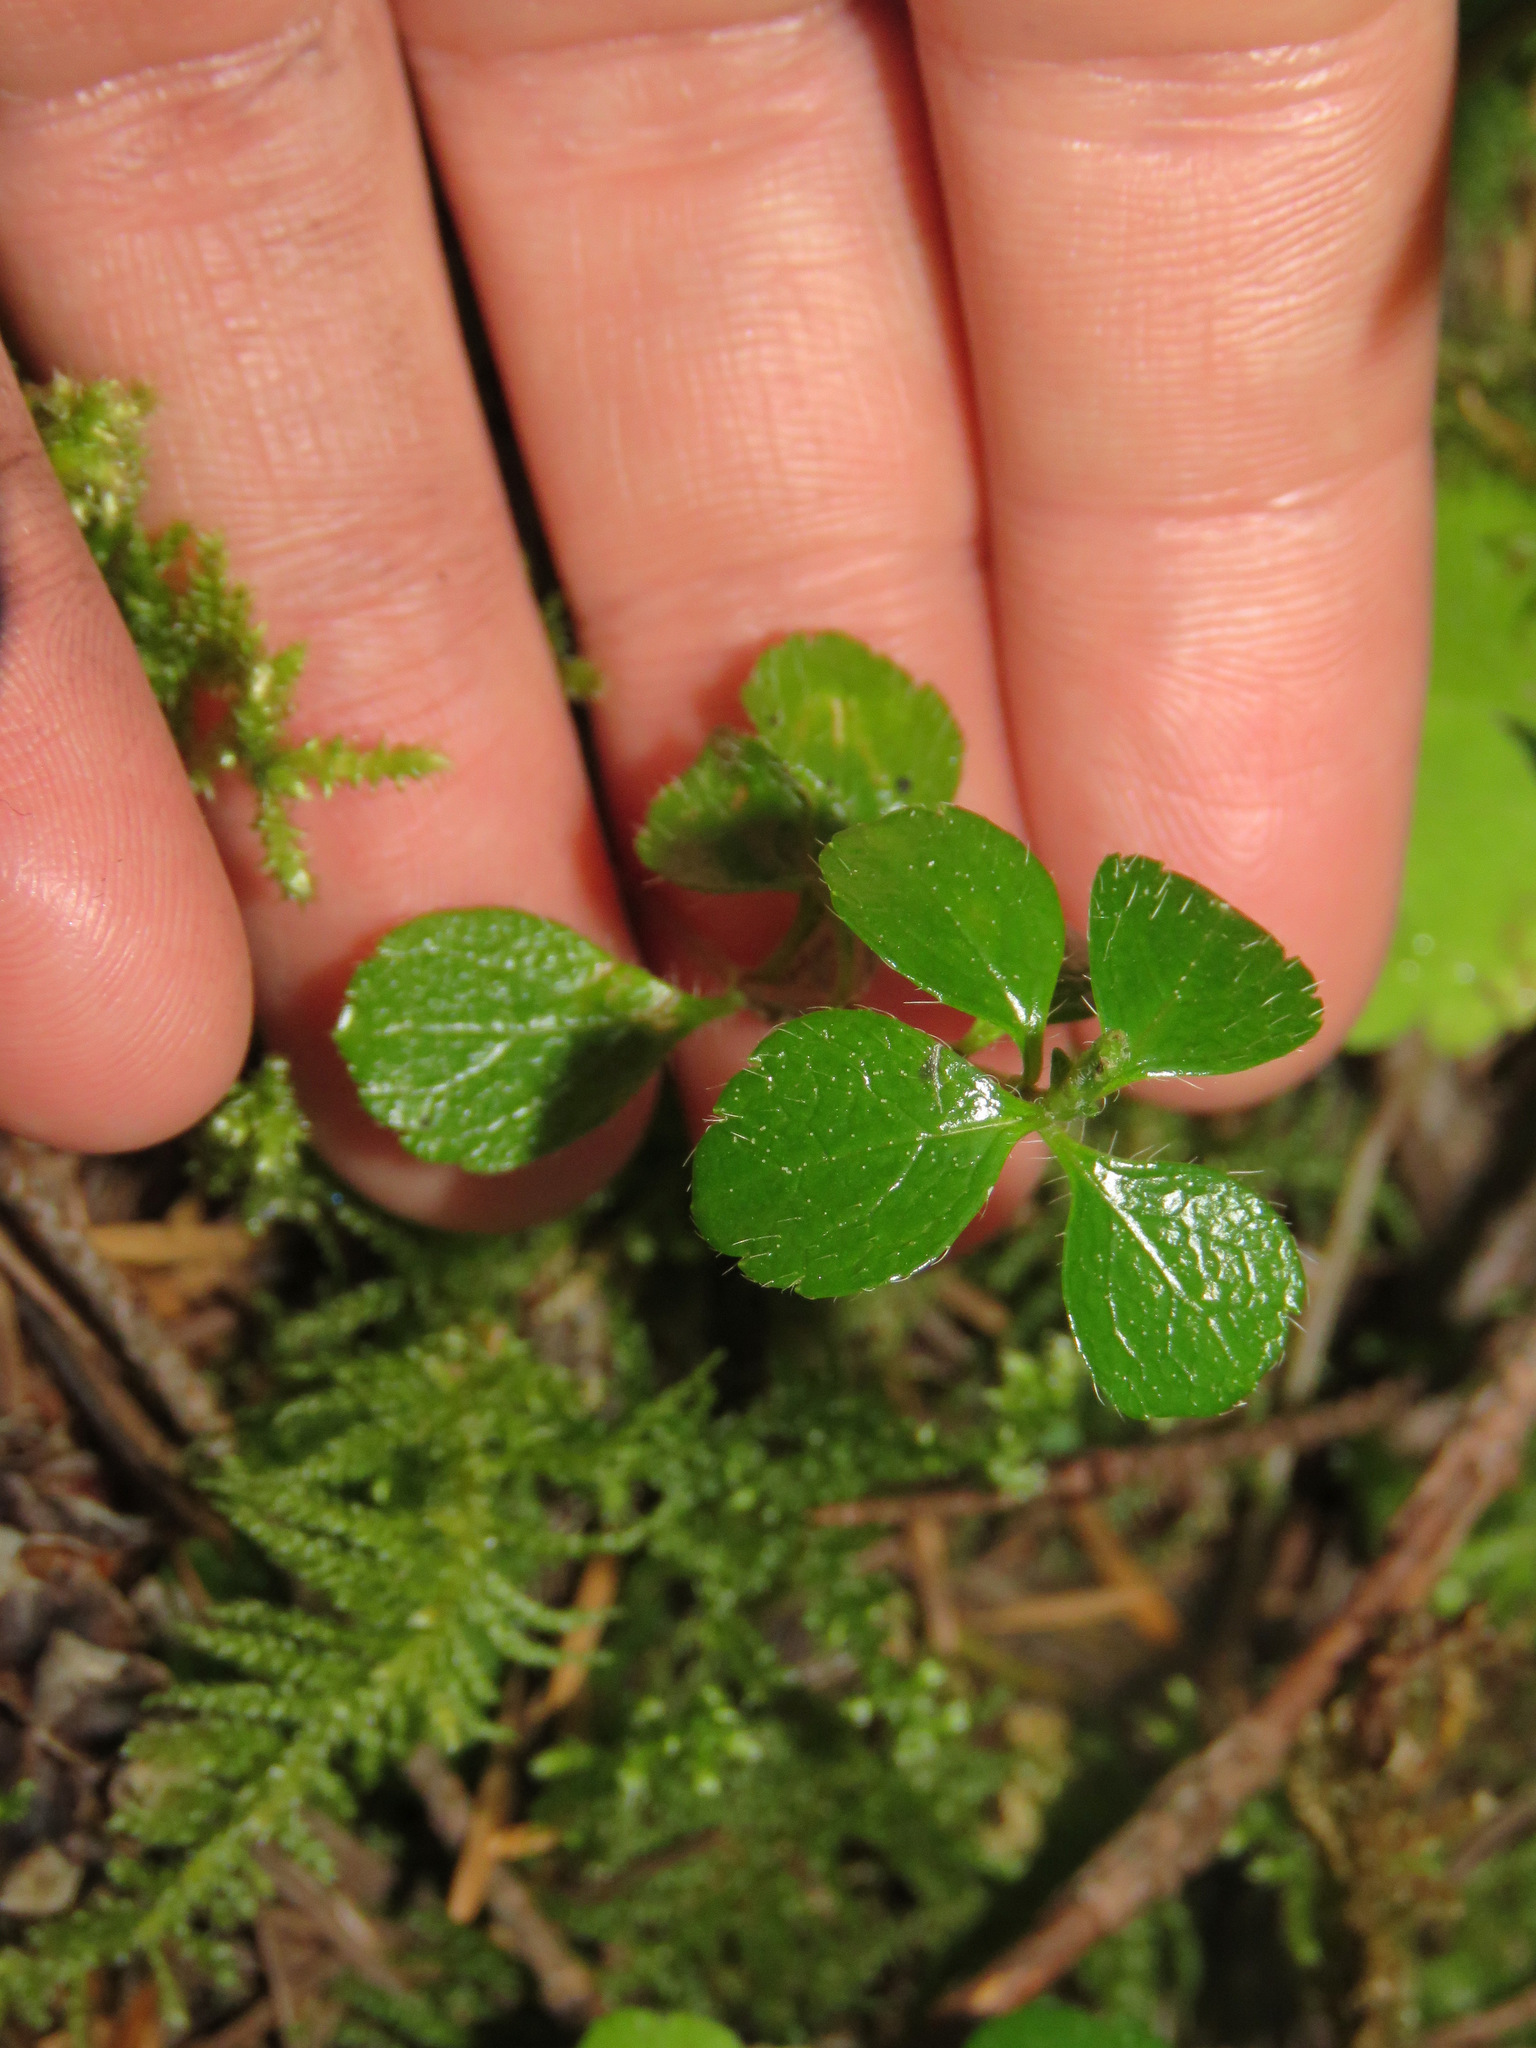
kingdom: Plantae
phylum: Tracheophyta
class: Magnoliopsida
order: Dipsacales
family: Caprifoliaceae
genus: Linnaea
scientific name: Linnaea borealis
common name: Twinflower
